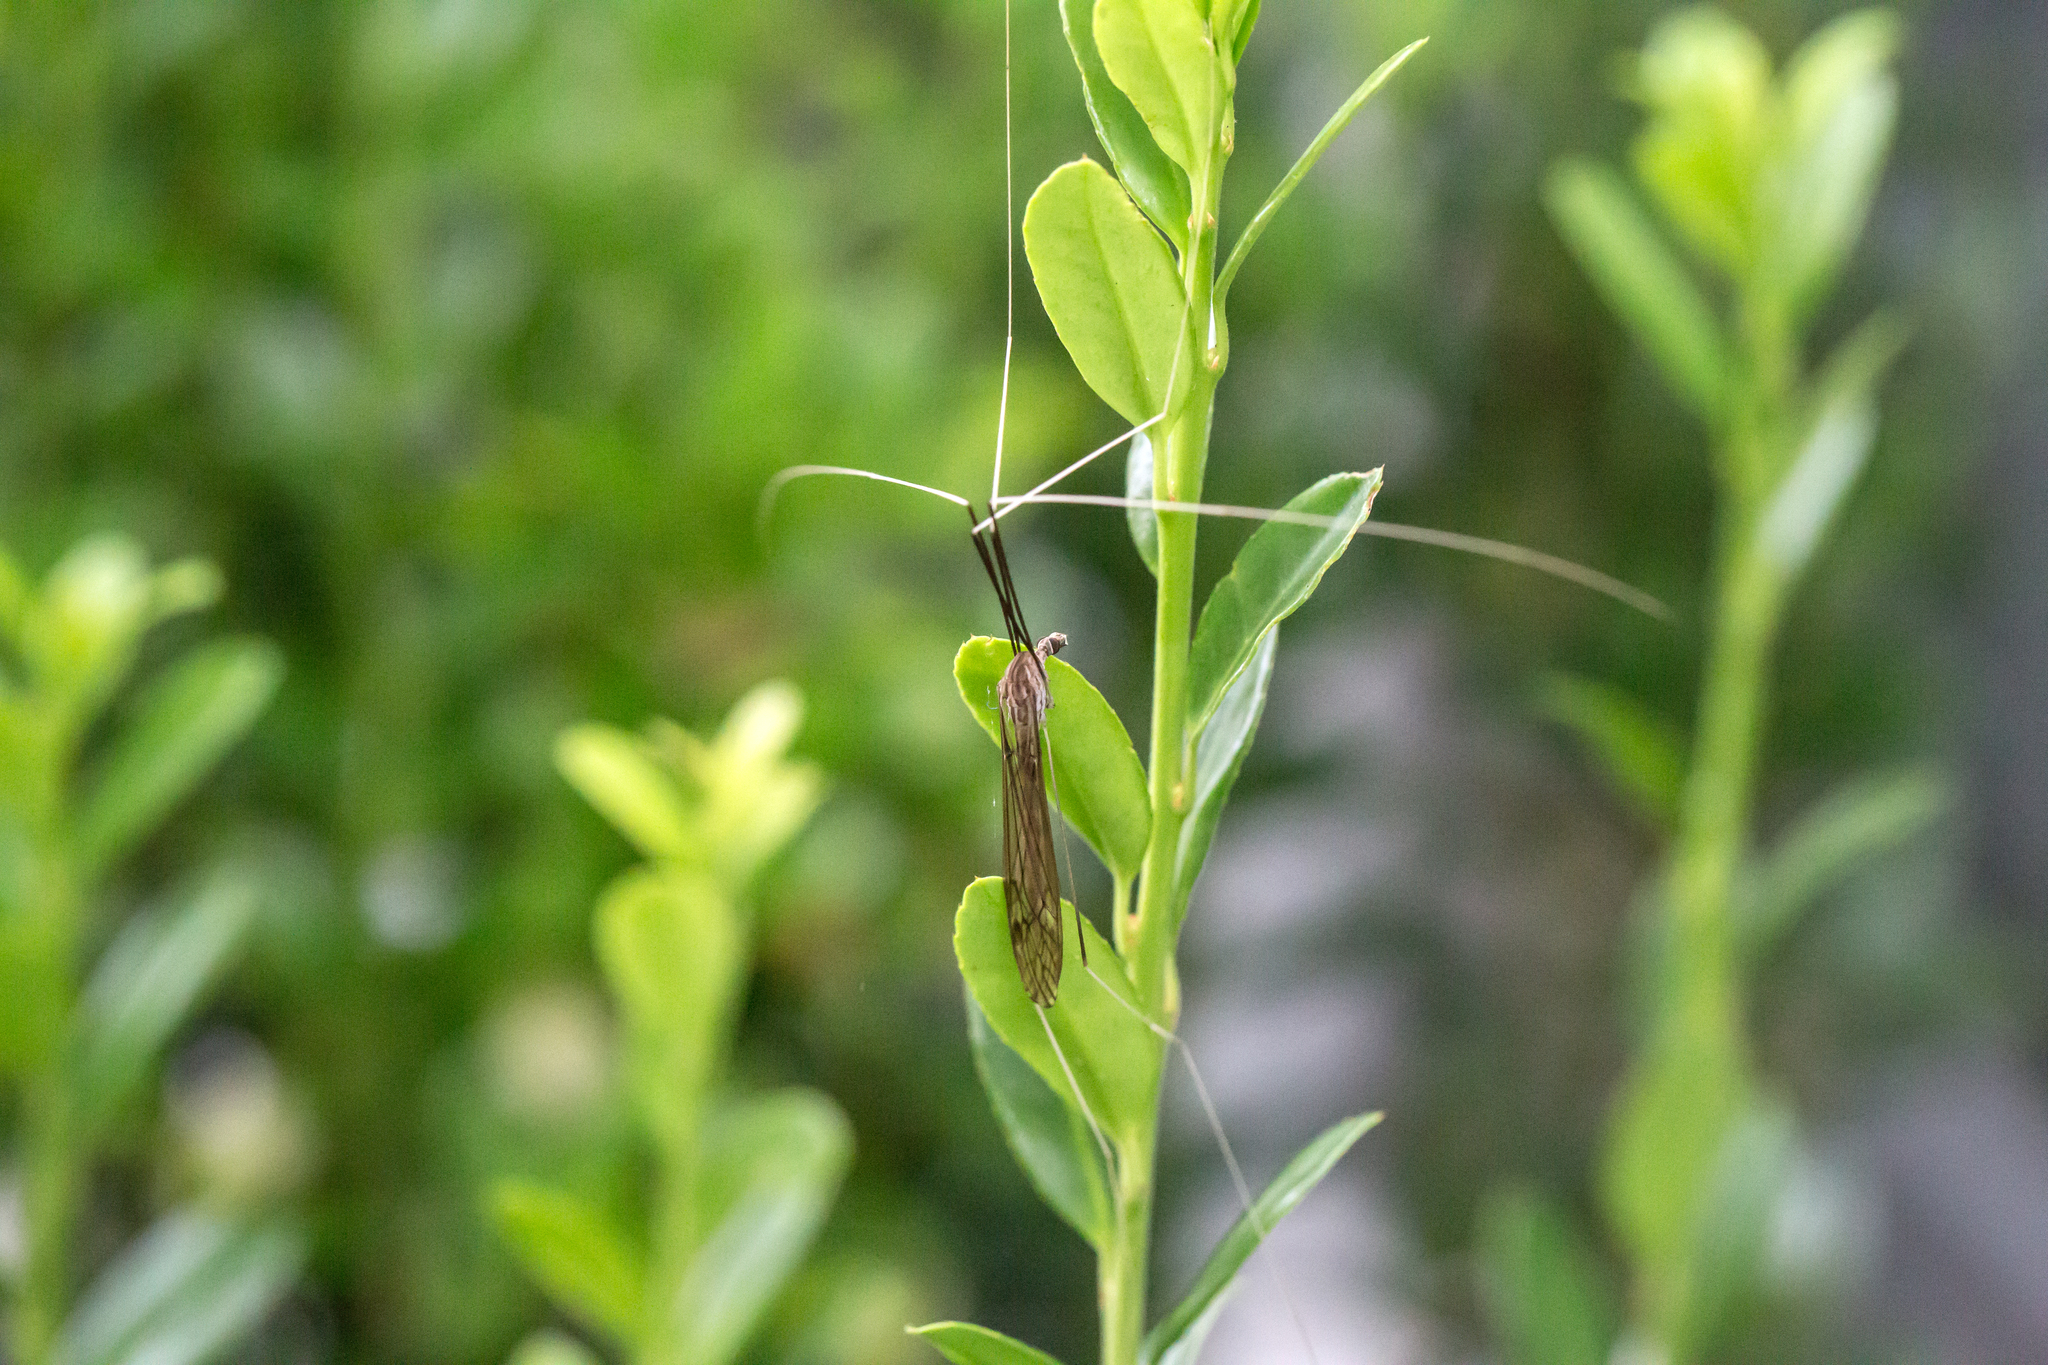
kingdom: Animalia
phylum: Arthropoda
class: Insecta
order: Diptera
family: Tipulidae
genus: Brachypremna
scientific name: Brachypremna dispellens
